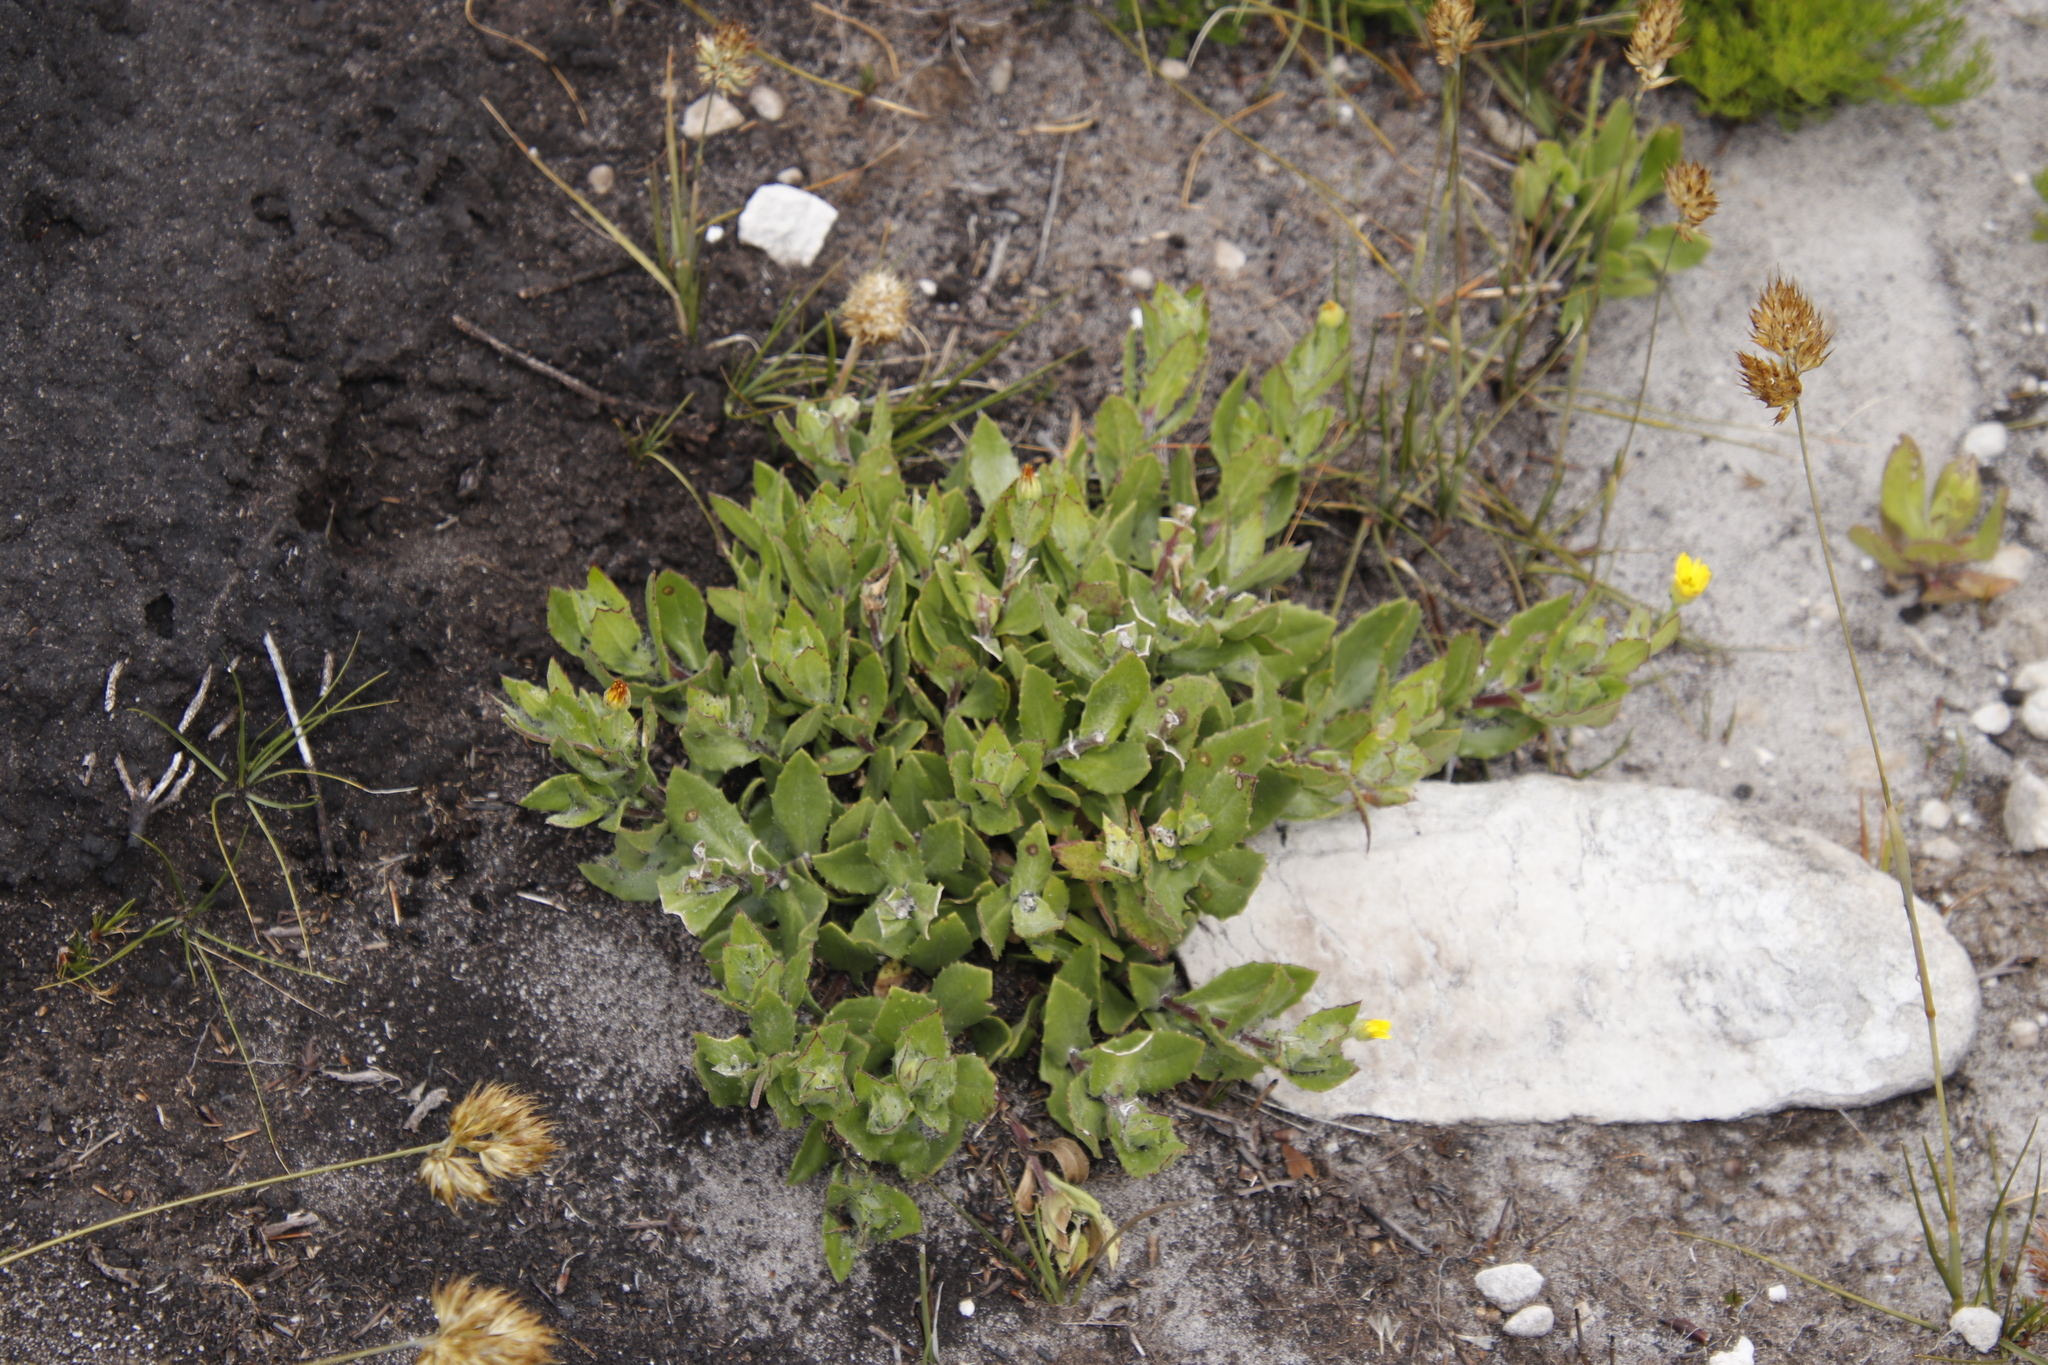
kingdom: Plantae
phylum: Tracheophyta
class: Magnoliopsida
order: Asterales
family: Asteraceae
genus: Osteospermum
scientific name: Osteospermum ilicifolium
